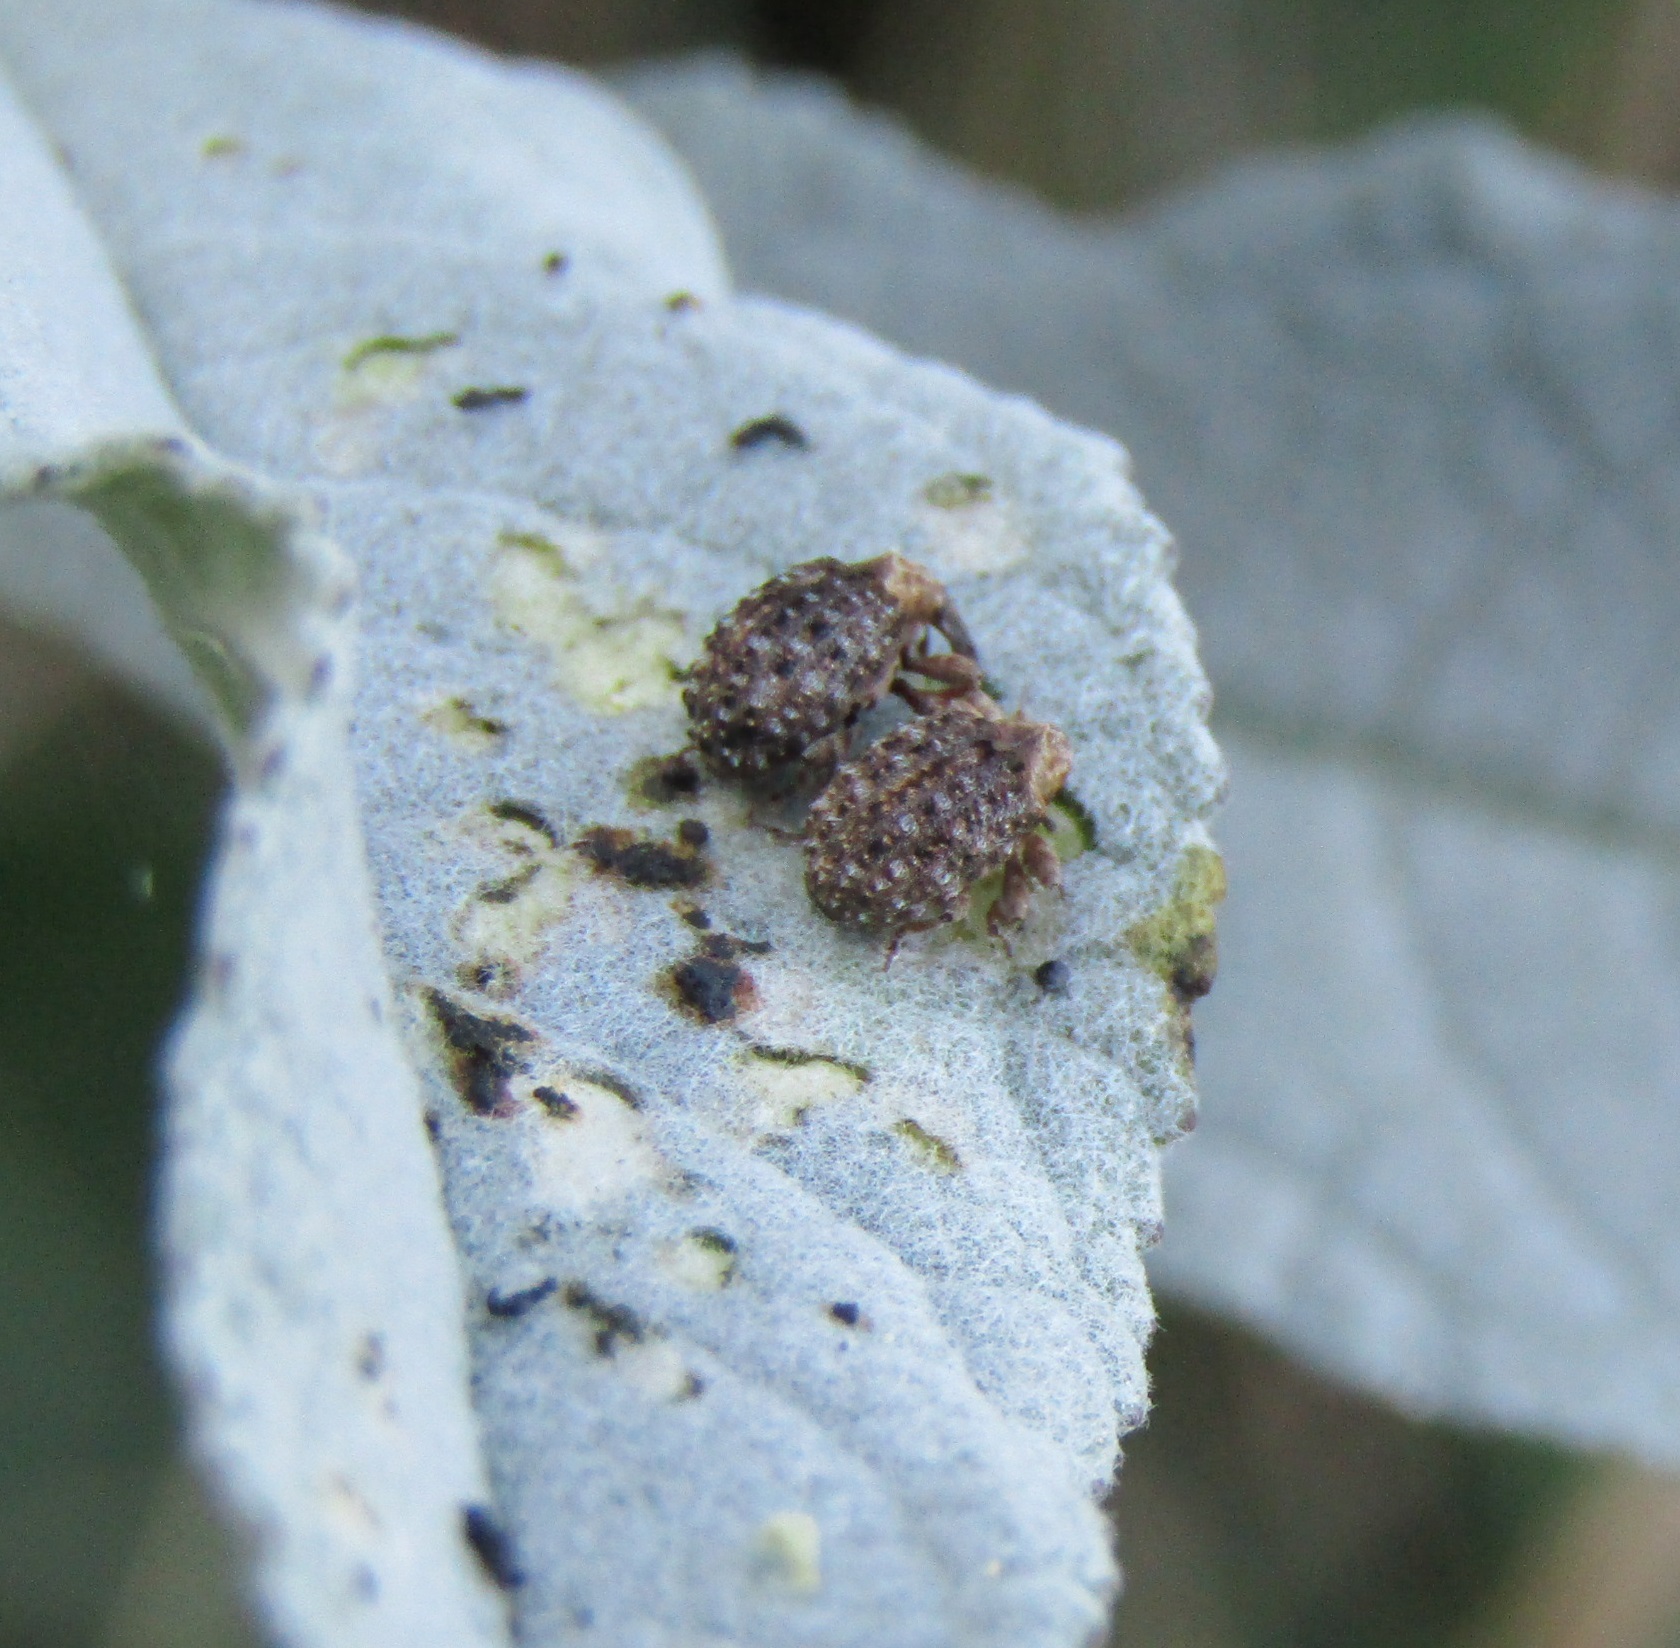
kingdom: Animalia
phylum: Arthropoda
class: Insecta
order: Coleoptera
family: Curculionidae
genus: Cleopus
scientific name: Cleopus japonicus
